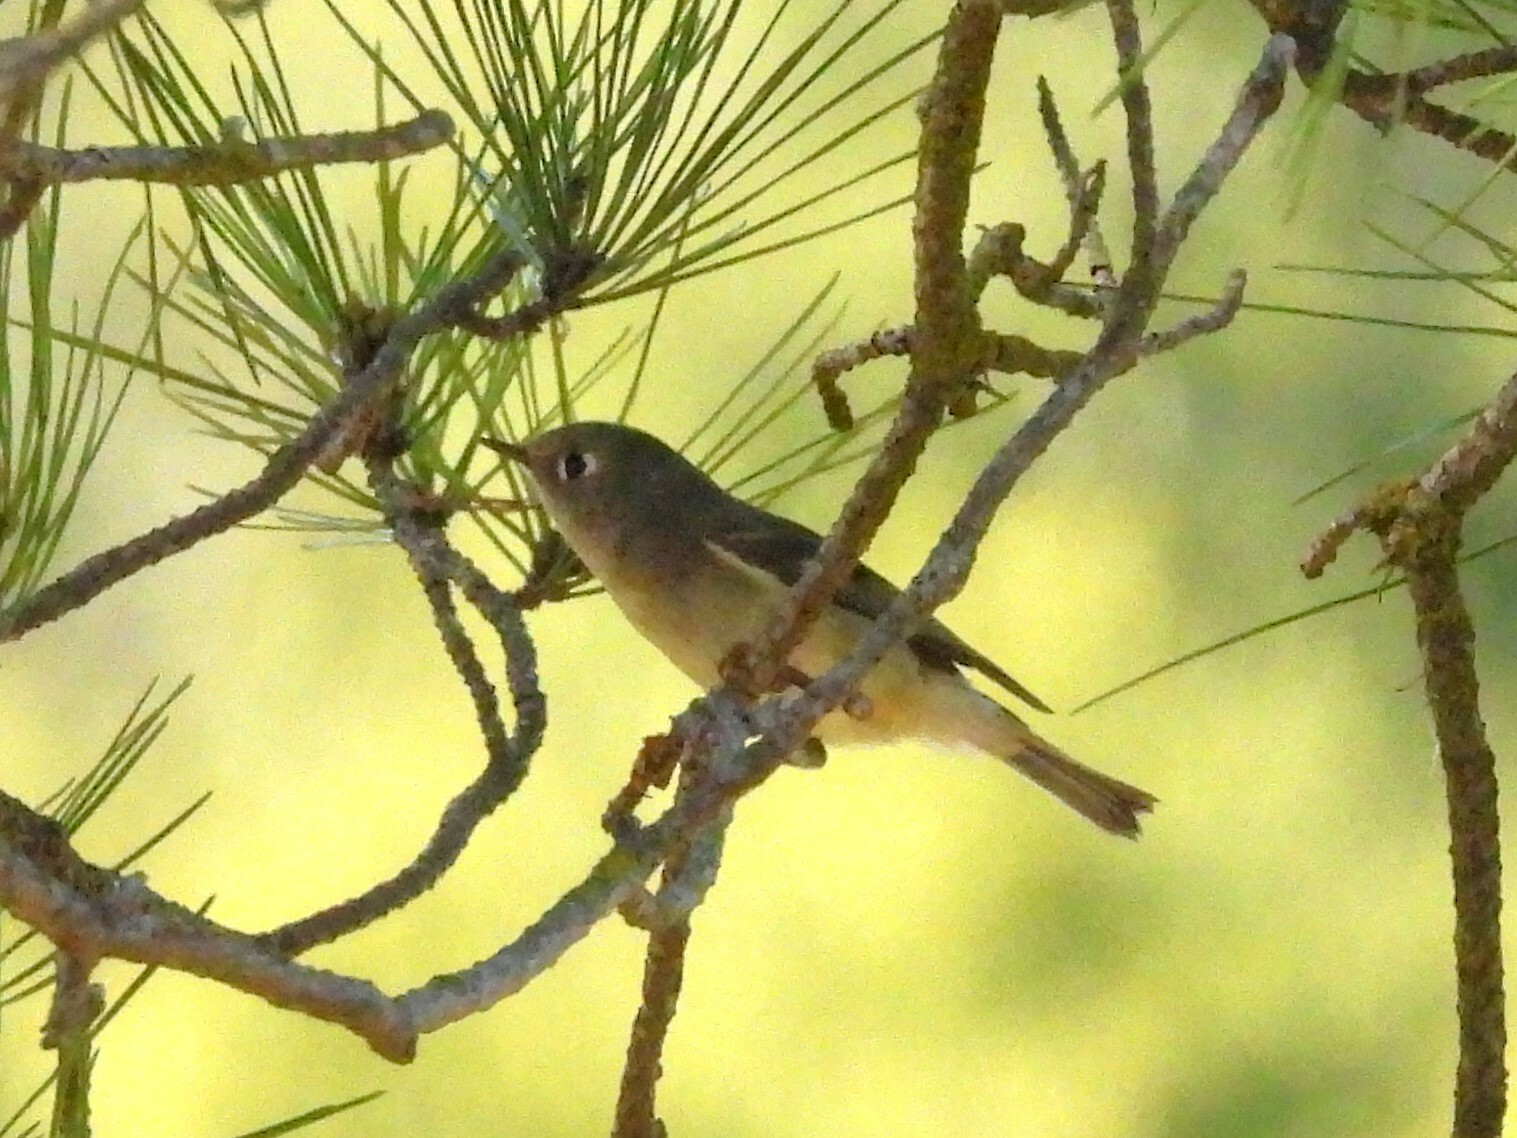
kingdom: Animalia
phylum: Chordata
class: Aves
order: Passeriformes
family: Regulidae
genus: Regulus
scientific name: Regulus calendula
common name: Ruby-crowned kinglet
